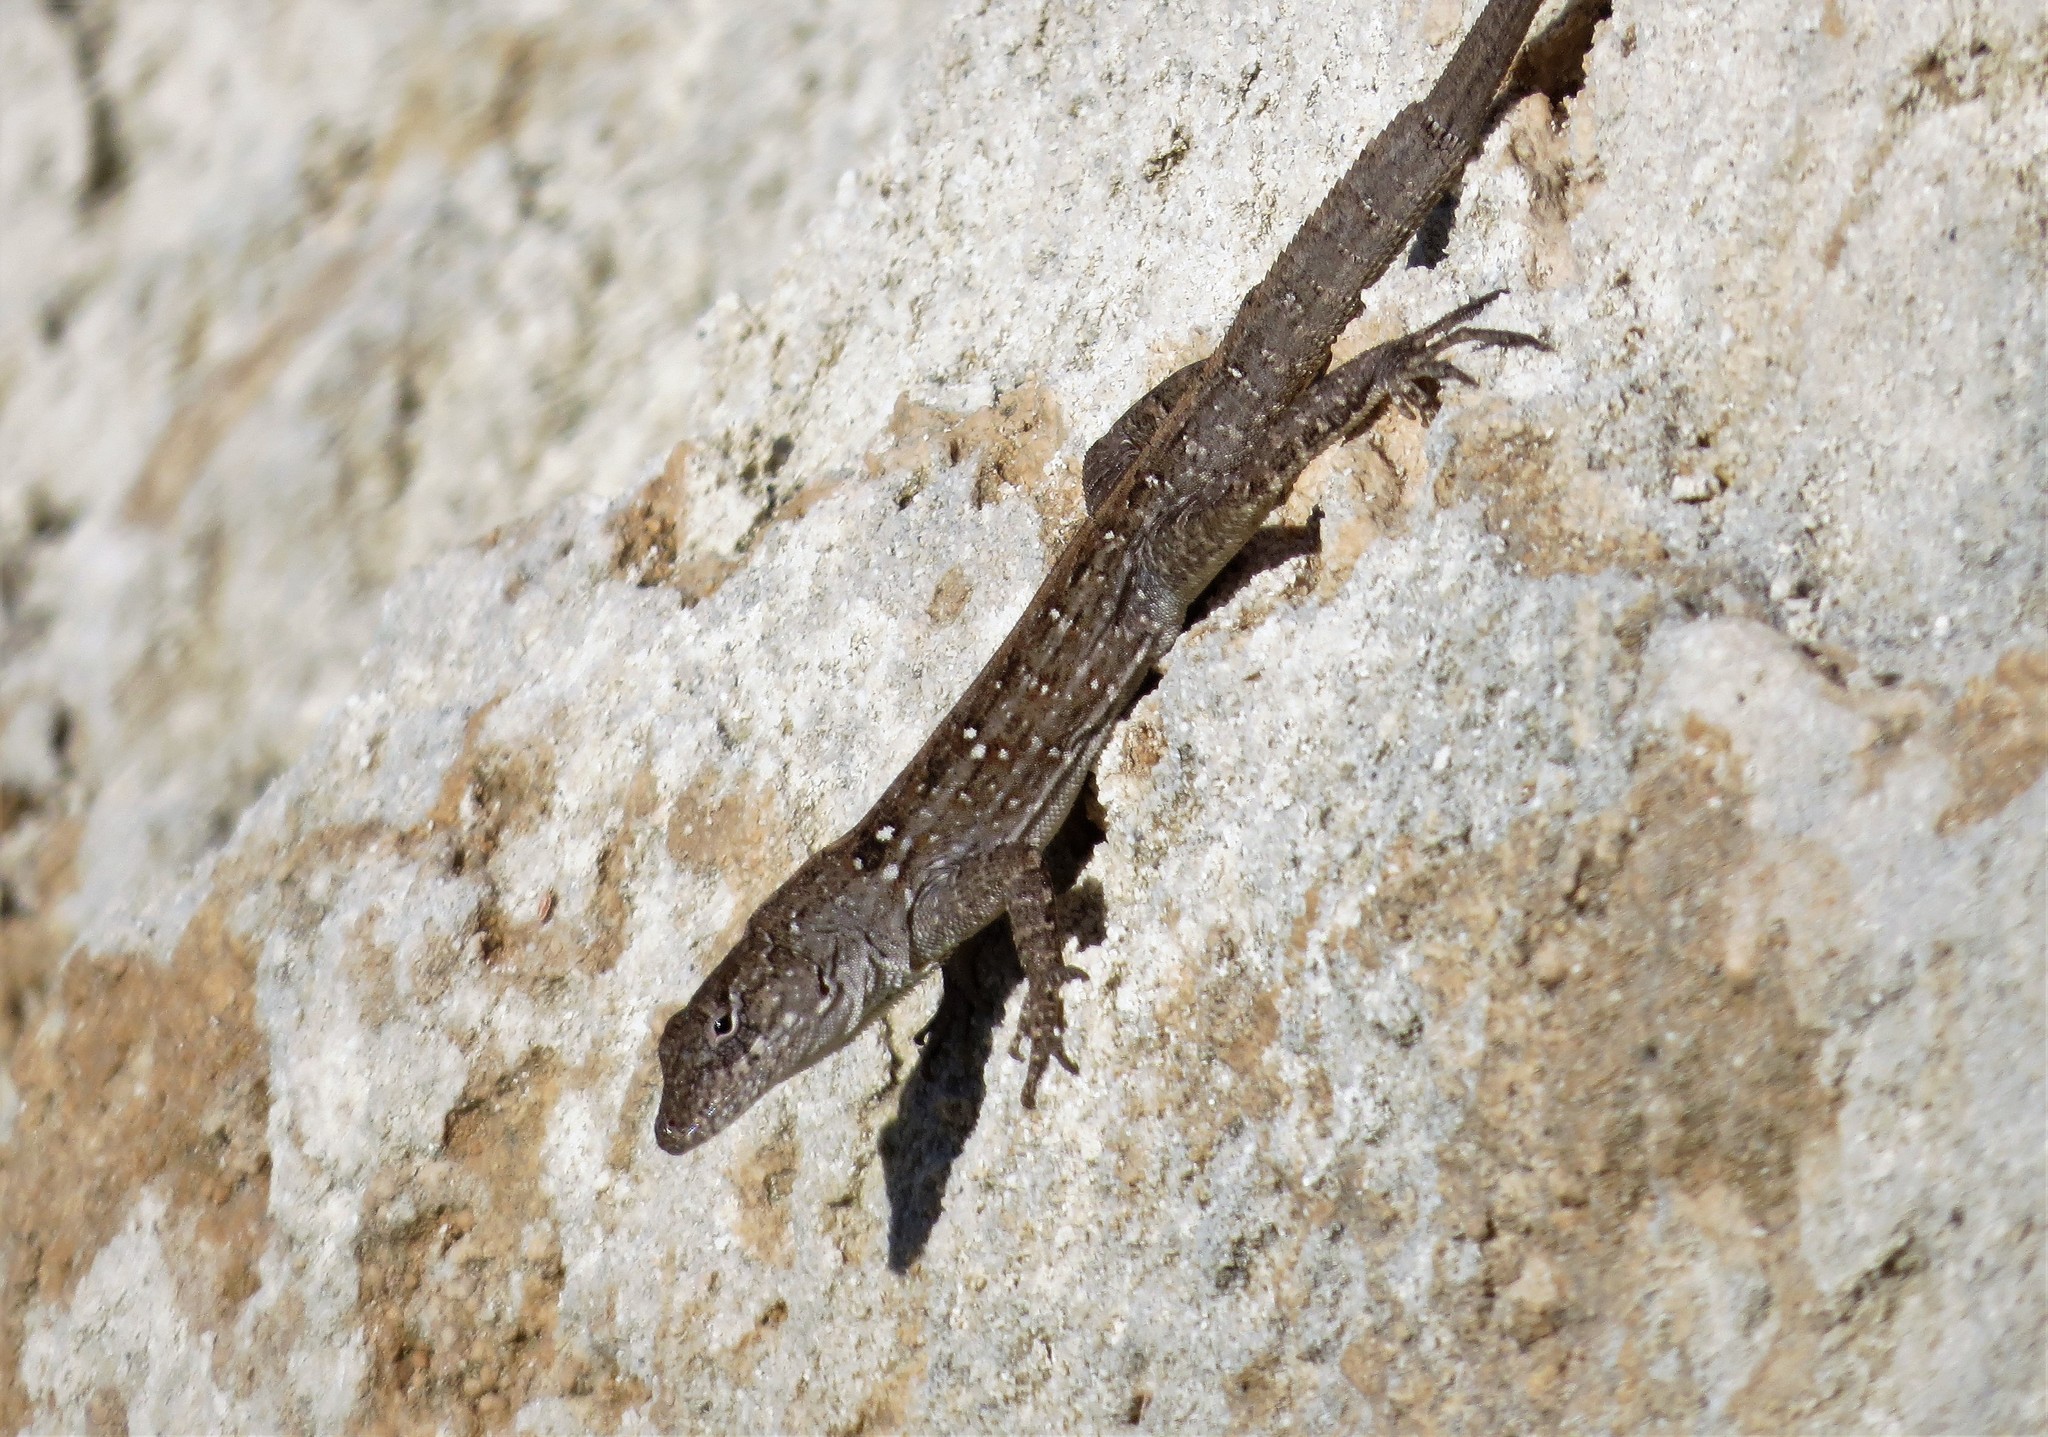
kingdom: Animalia
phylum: Chordata
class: Squamata
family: Dactyloidae
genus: Anolis
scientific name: Anolis sagrei
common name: Brown anole
